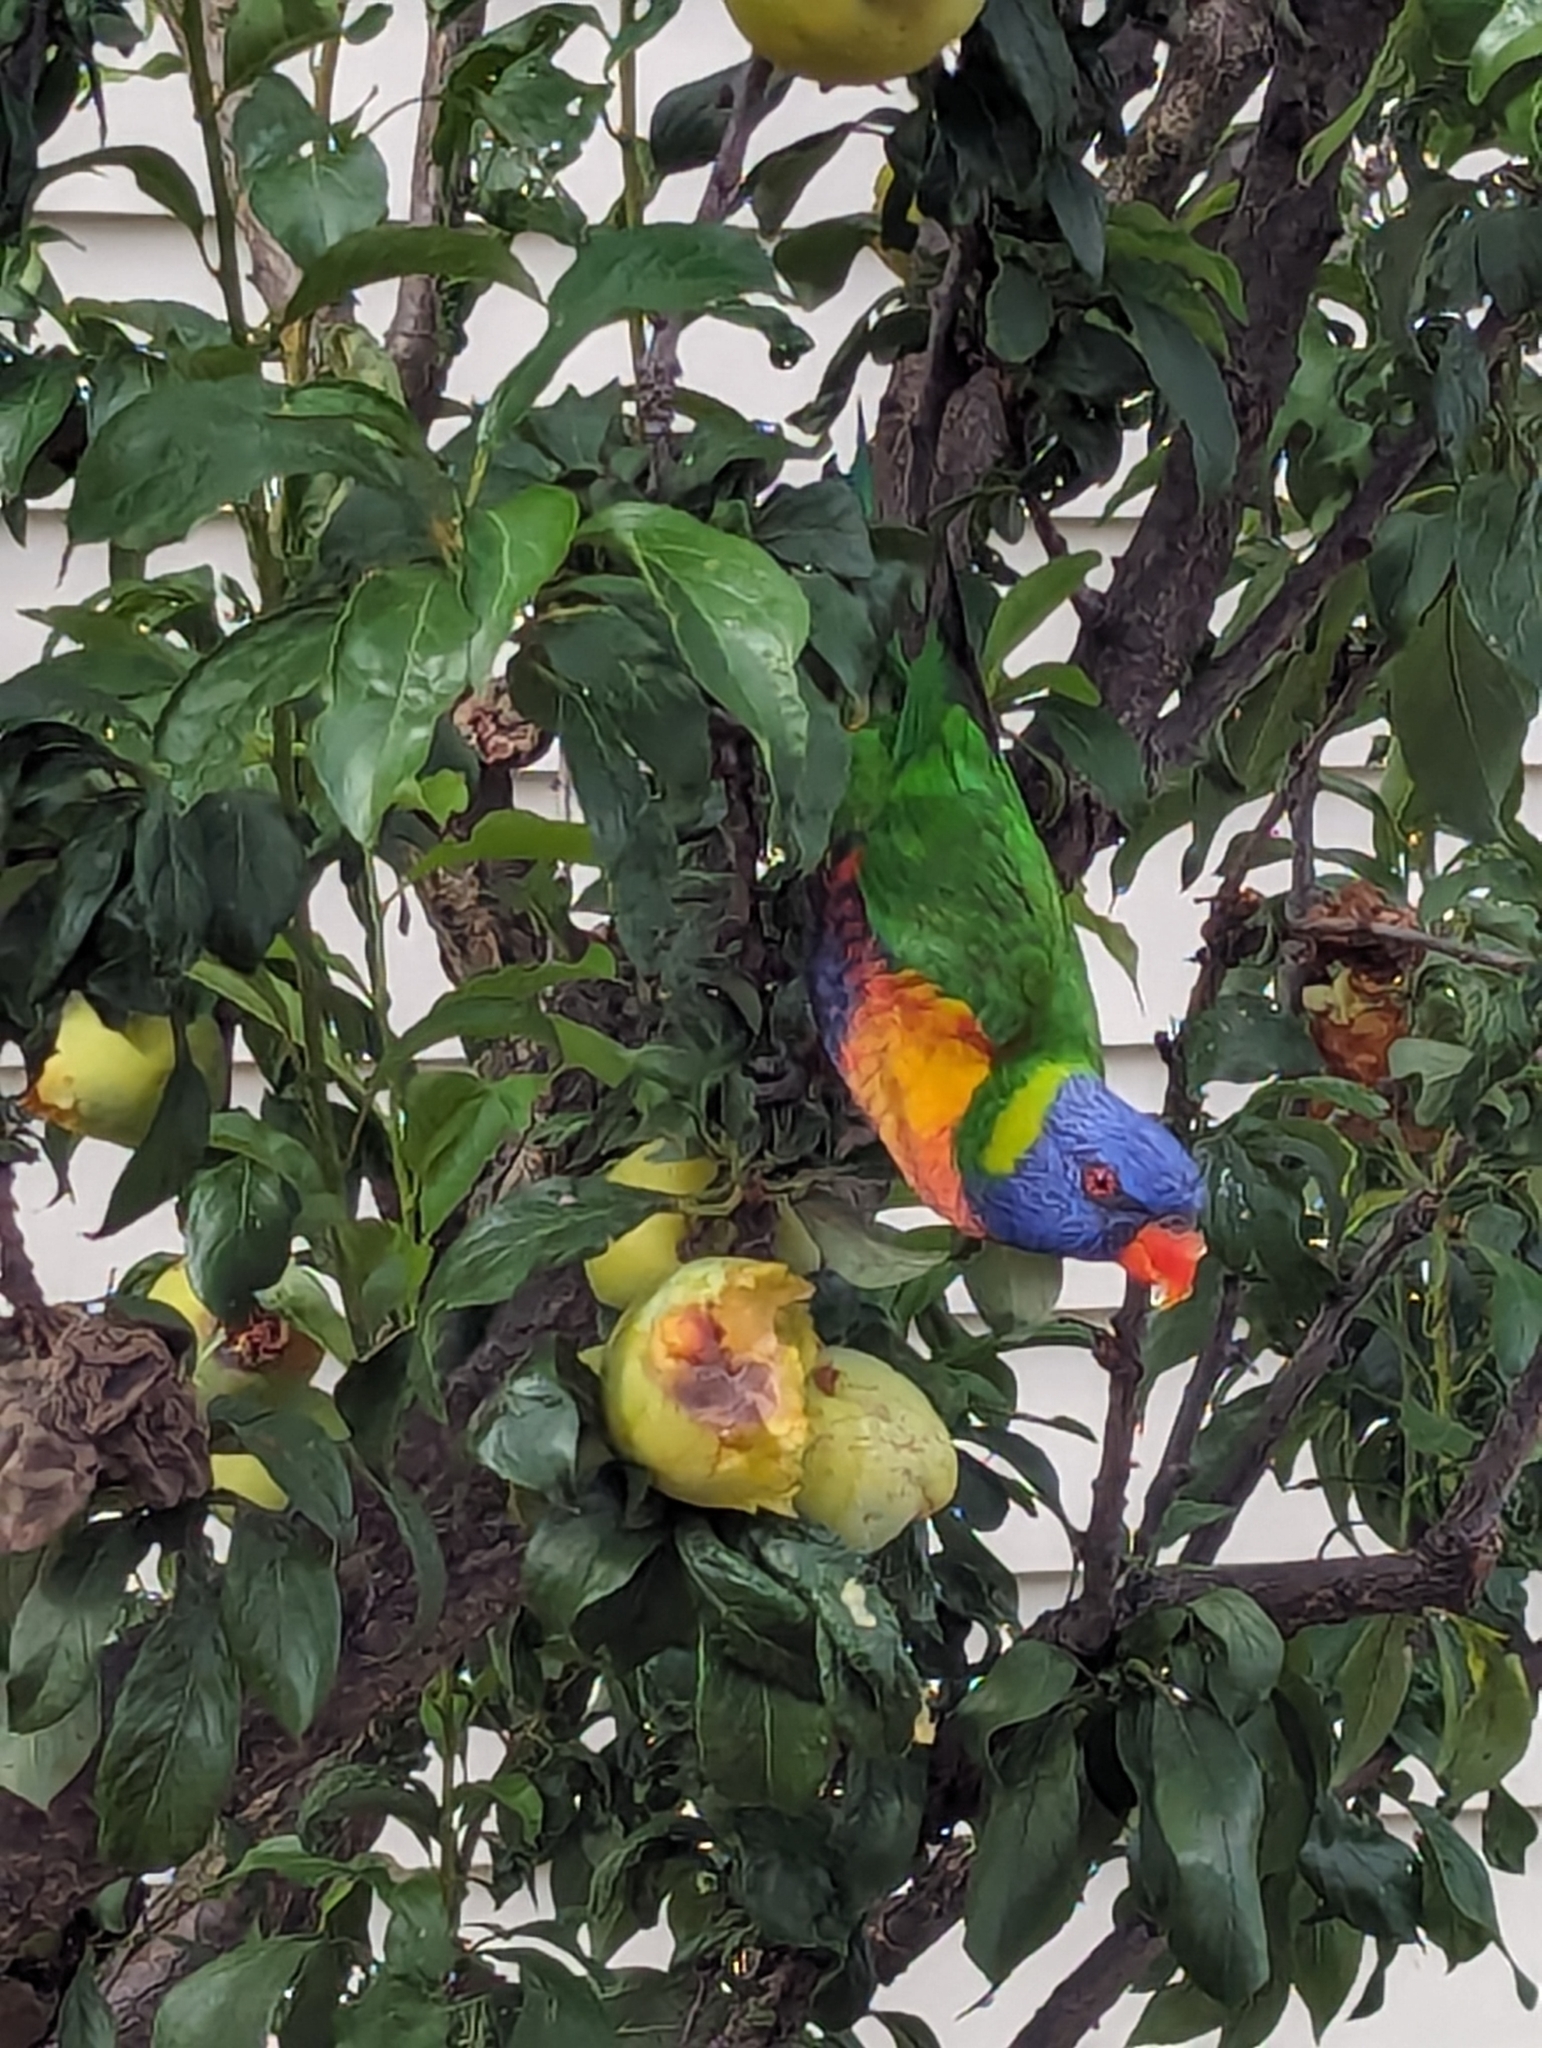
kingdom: Animalia
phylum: Chordata
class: Aves
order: Psittaciformes
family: Psittacidae
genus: Trichoglossus
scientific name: Trichoglossus haematodus
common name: Coconut lorikeet
